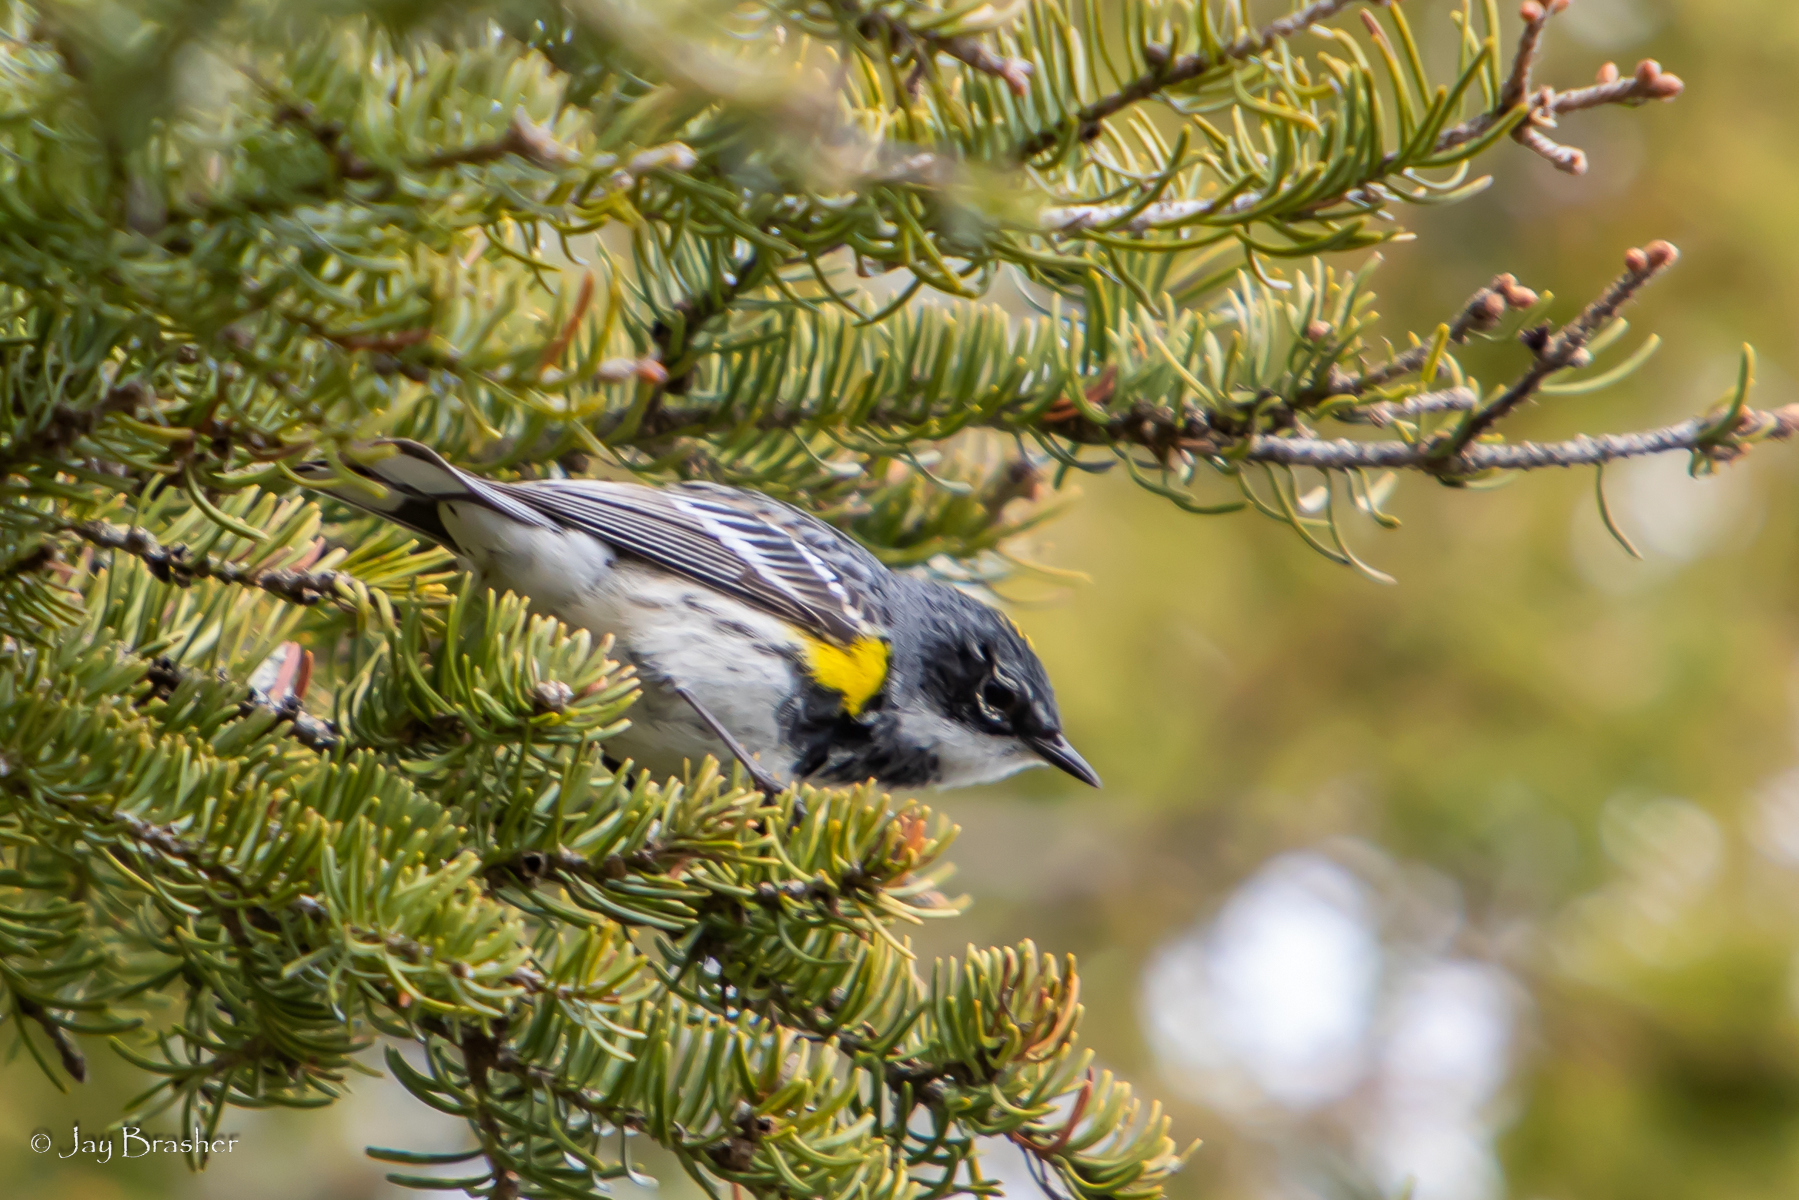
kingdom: Animalia
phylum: Chordata
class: Aves
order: Passeriformes
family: Parulidae
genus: Setophaga
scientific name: Setophaga coronata
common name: Myrtle warbler
